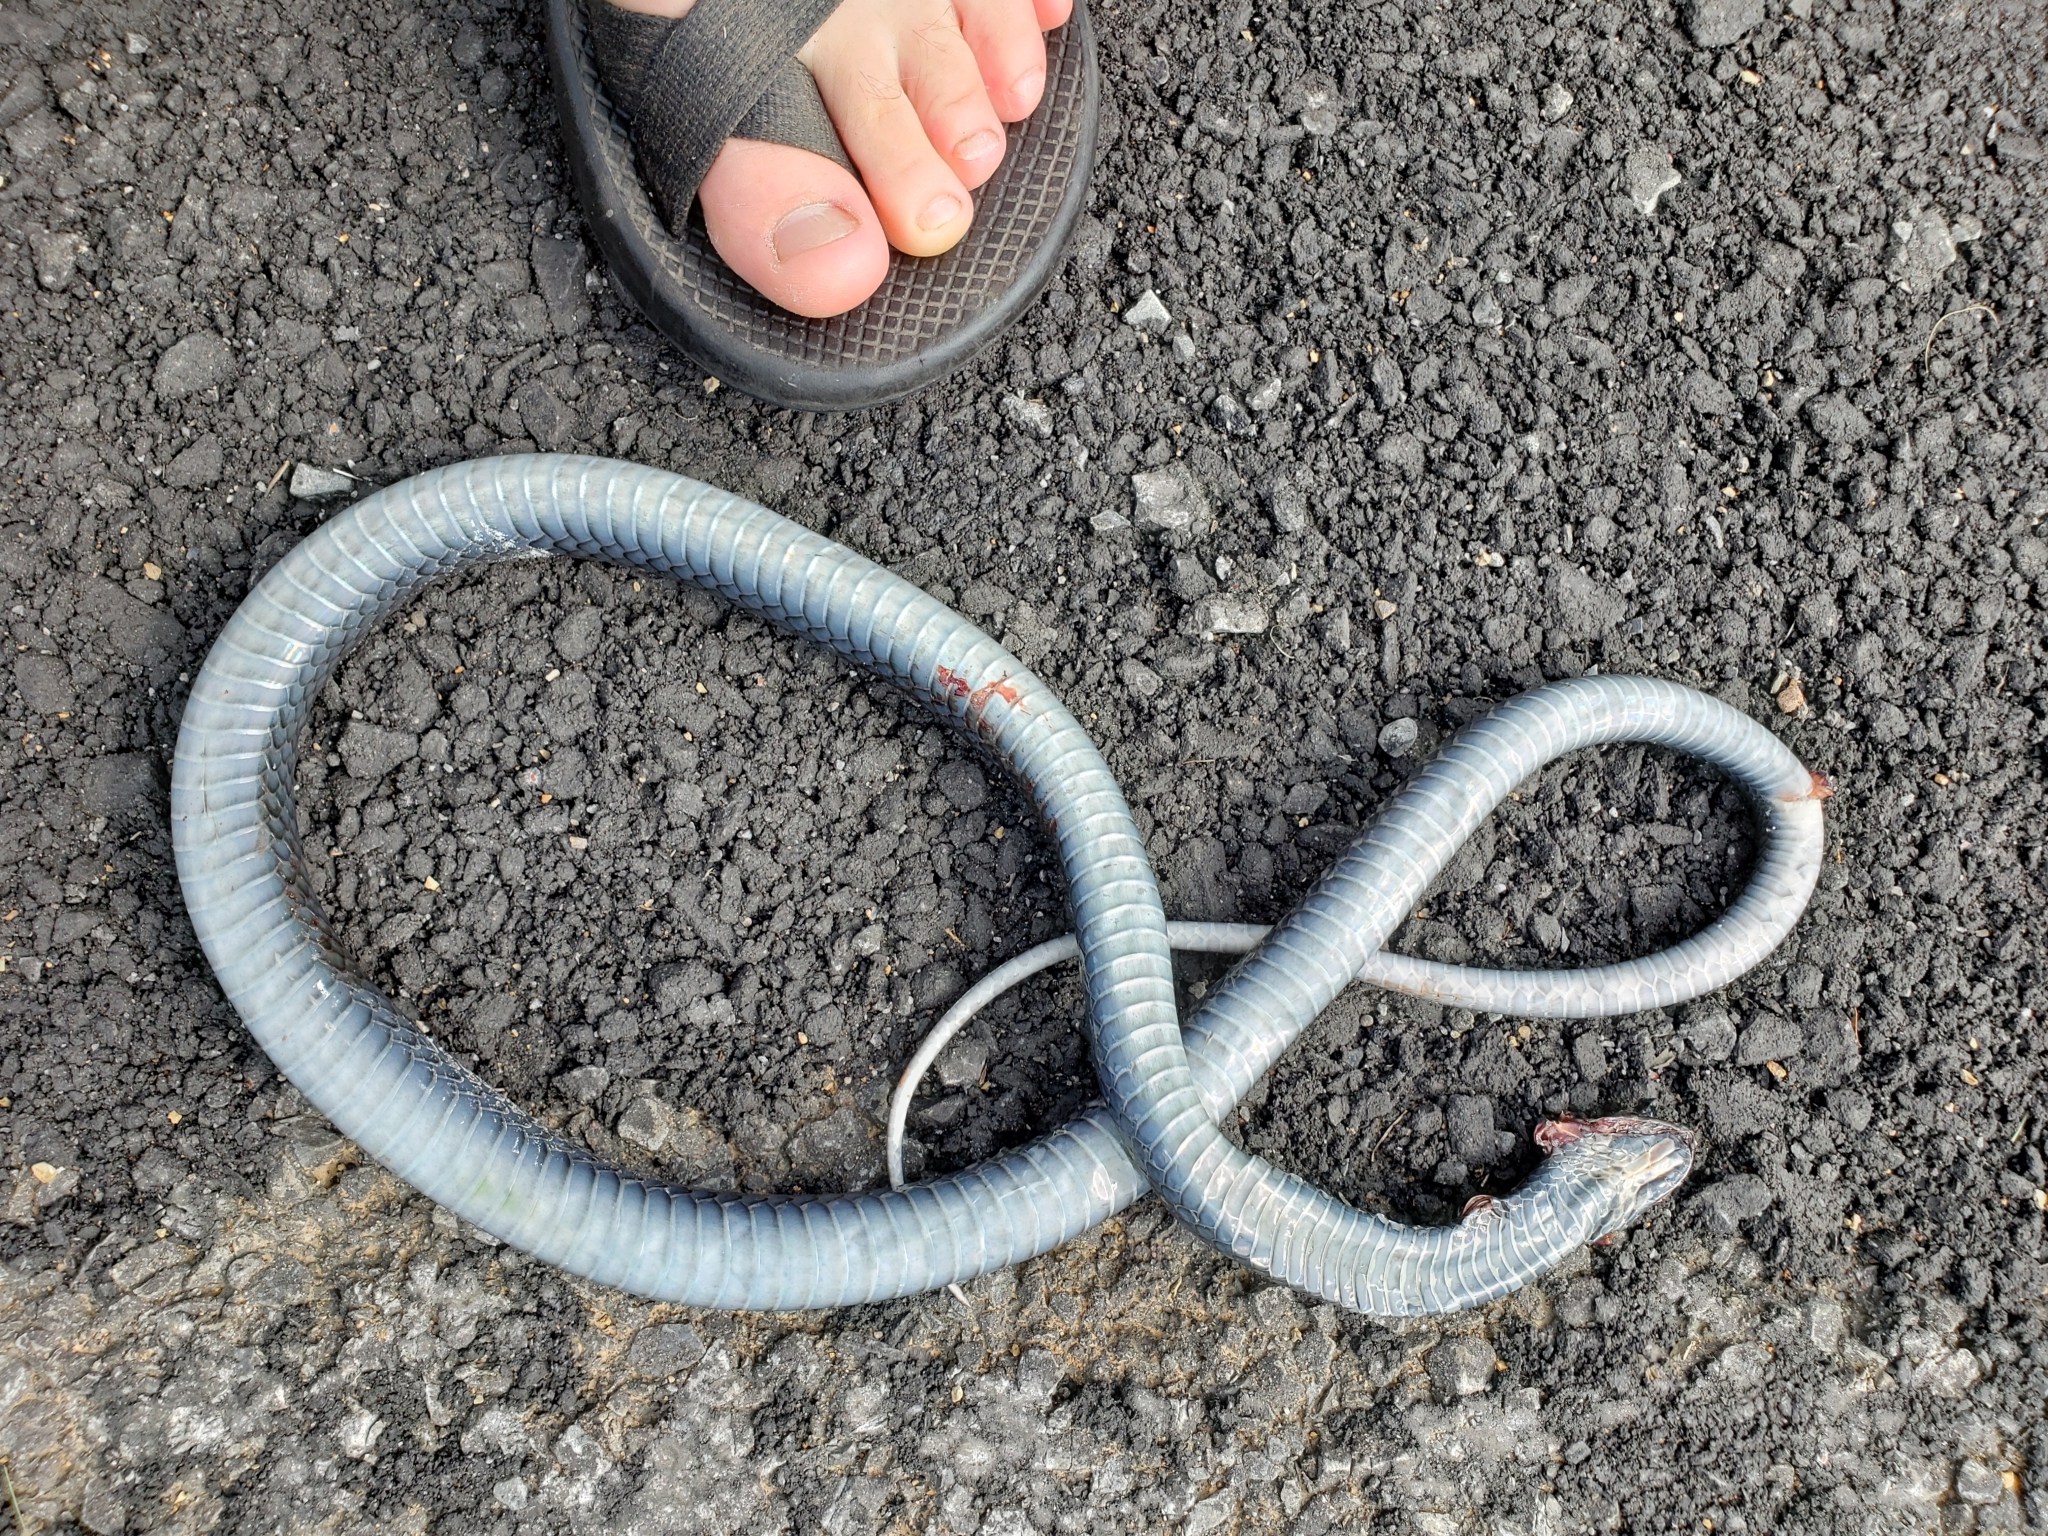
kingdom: Animalia
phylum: Chordata
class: Squamata
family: Colubridae
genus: Coluber
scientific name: Coluber constrictor
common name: Eastern racer
